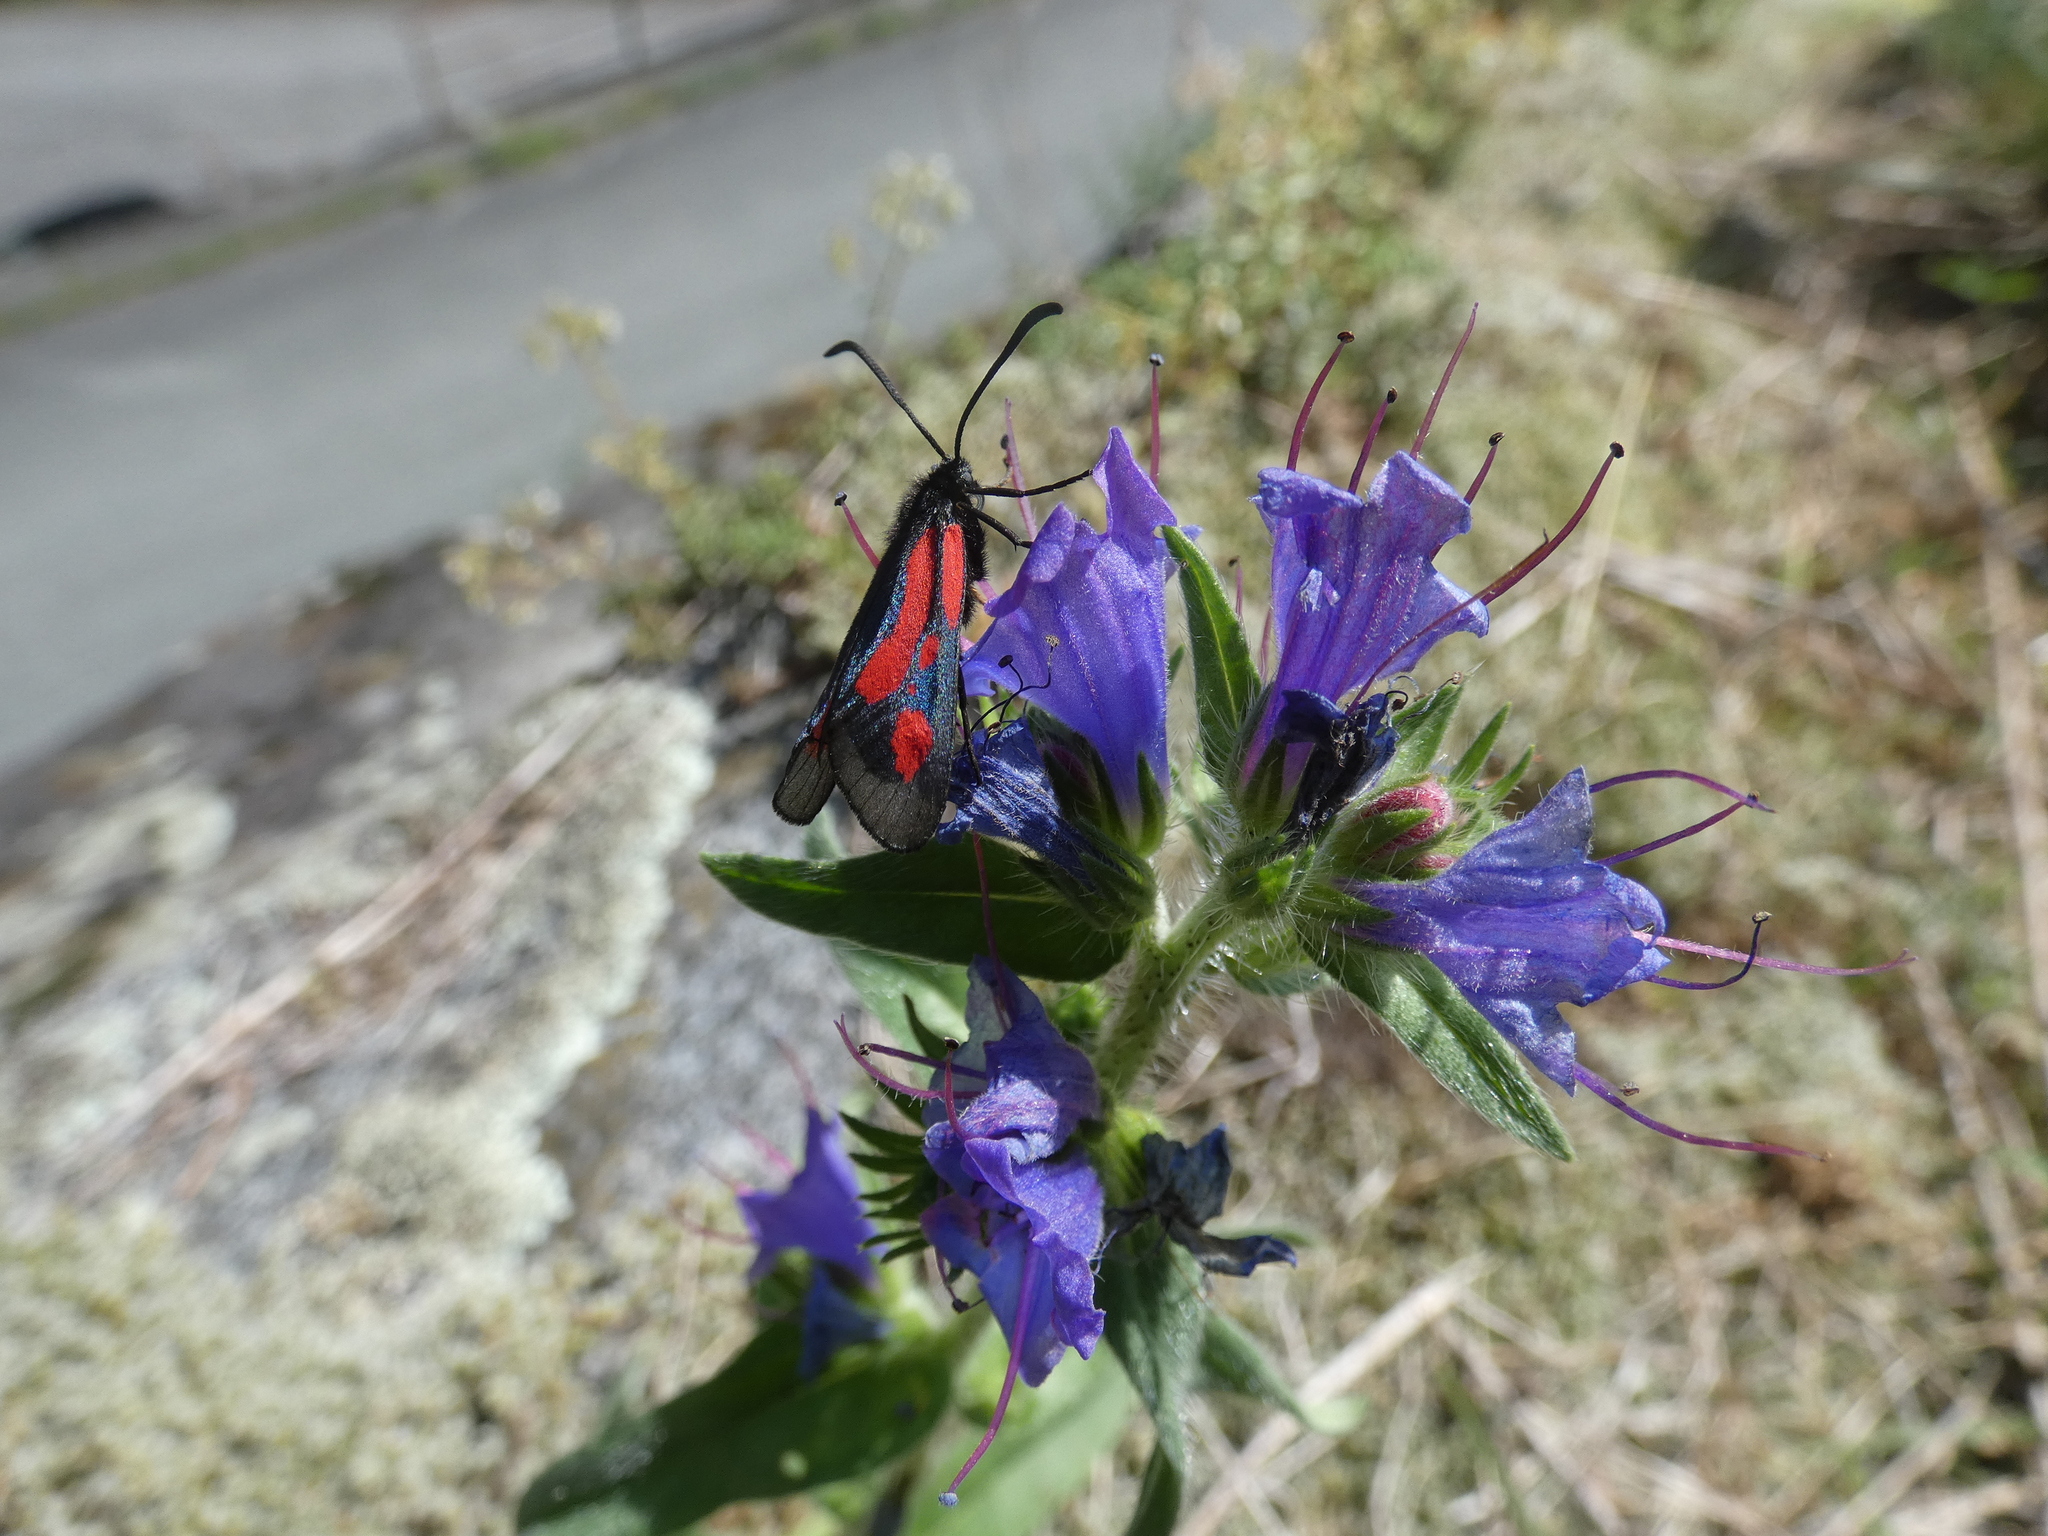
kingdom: Animalia
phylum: Arthropoda
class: Insecta
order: Lepidoptera
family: Zygaenidae
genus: Zygaena
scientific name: Zygaena romeo
